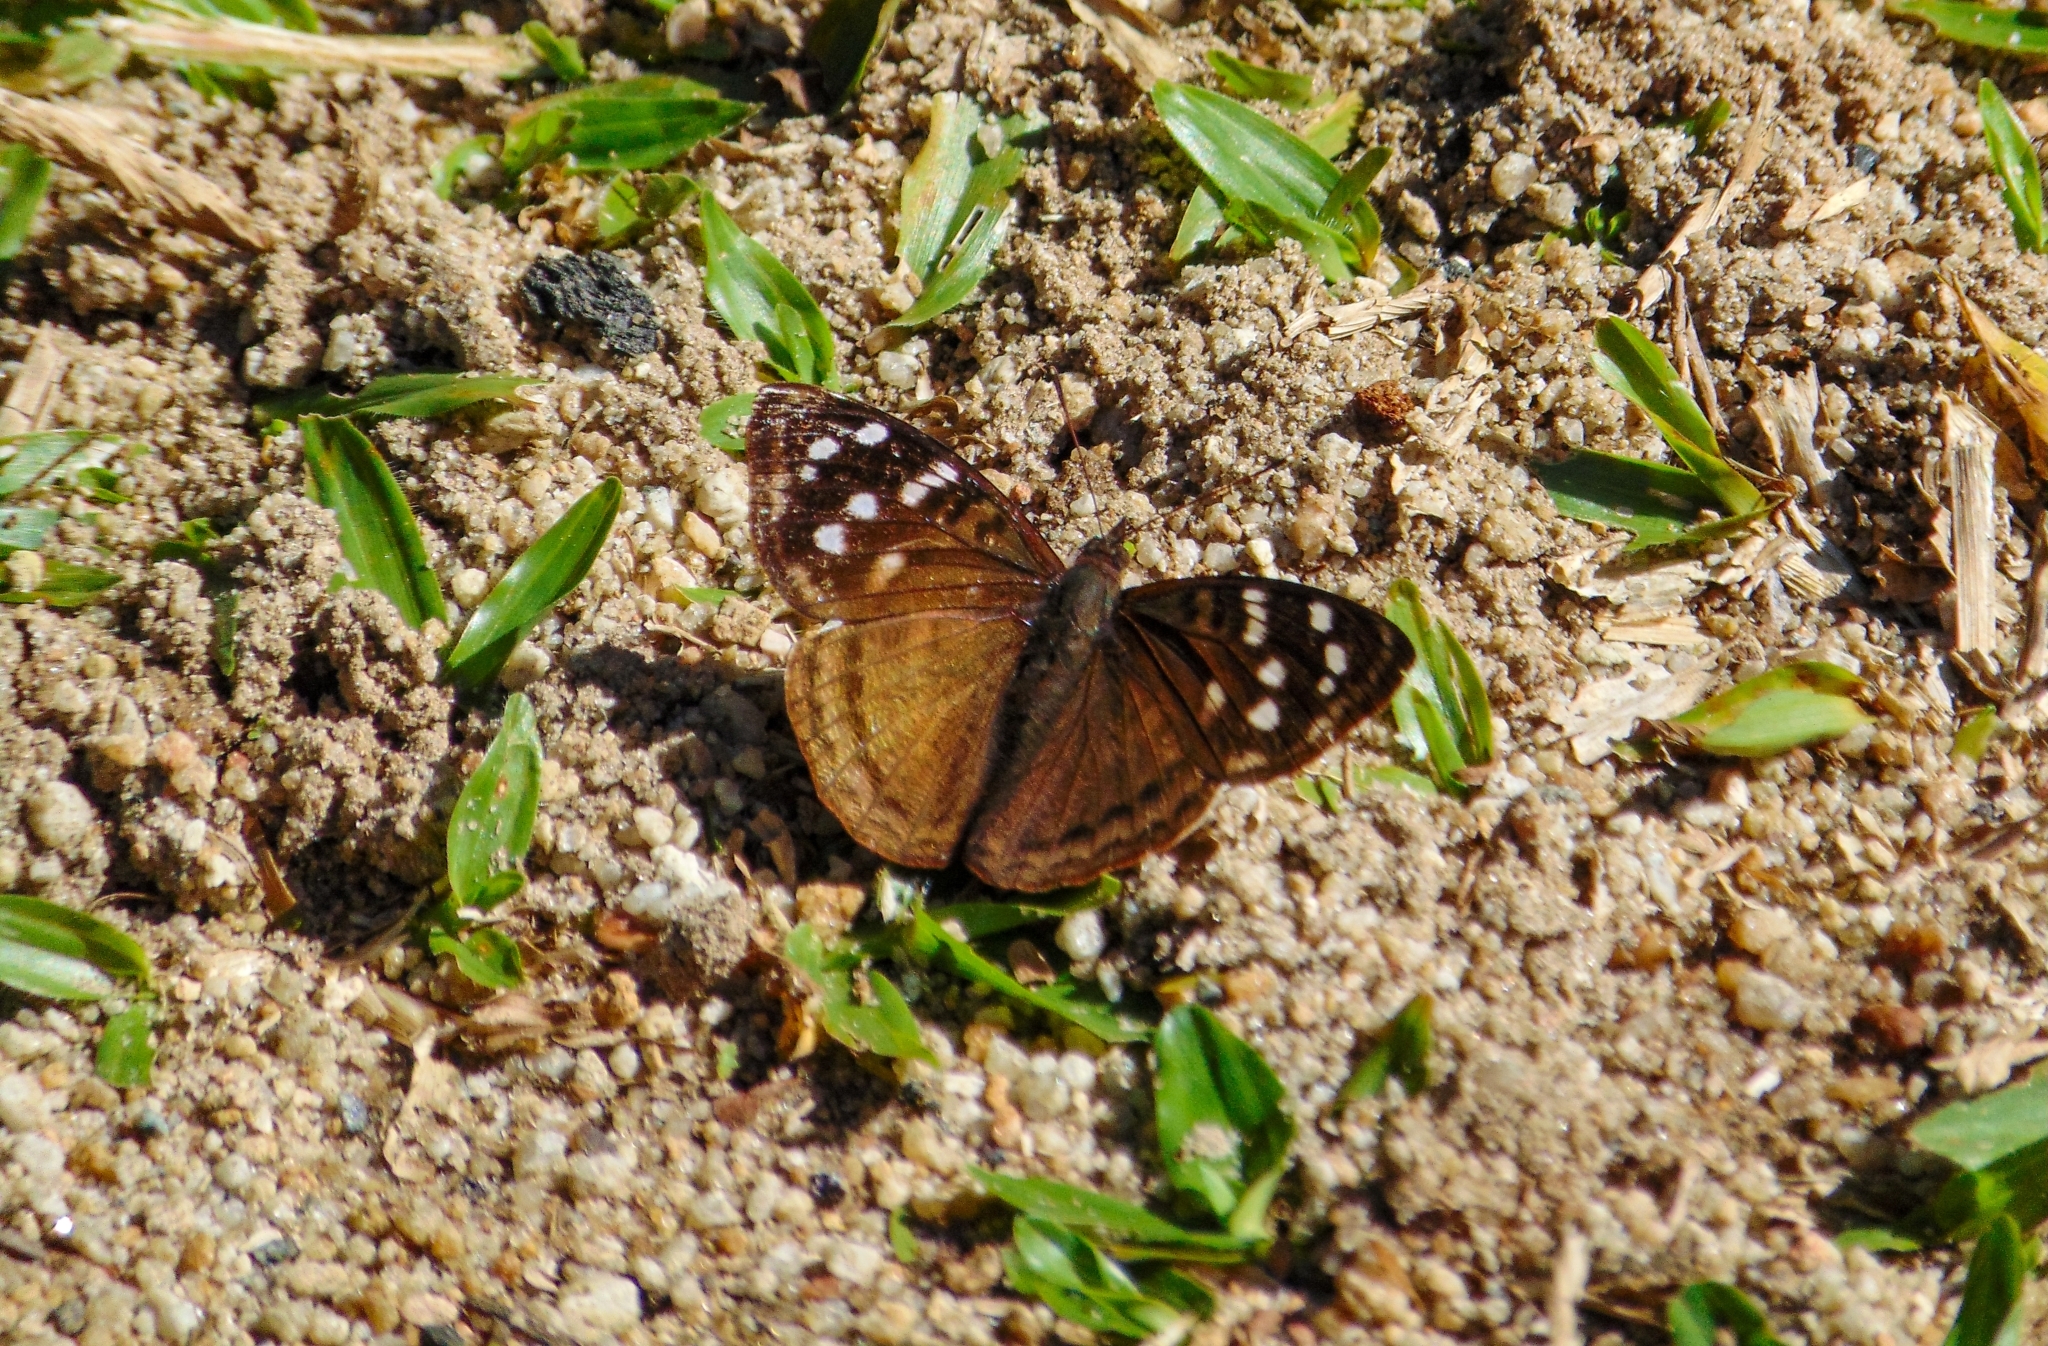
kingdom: Animalia
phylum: Arthropoda
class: Insecta
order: Lepidoptera
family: Nymphalidae
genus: Doxocopa
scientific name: Doxocopa kallina
